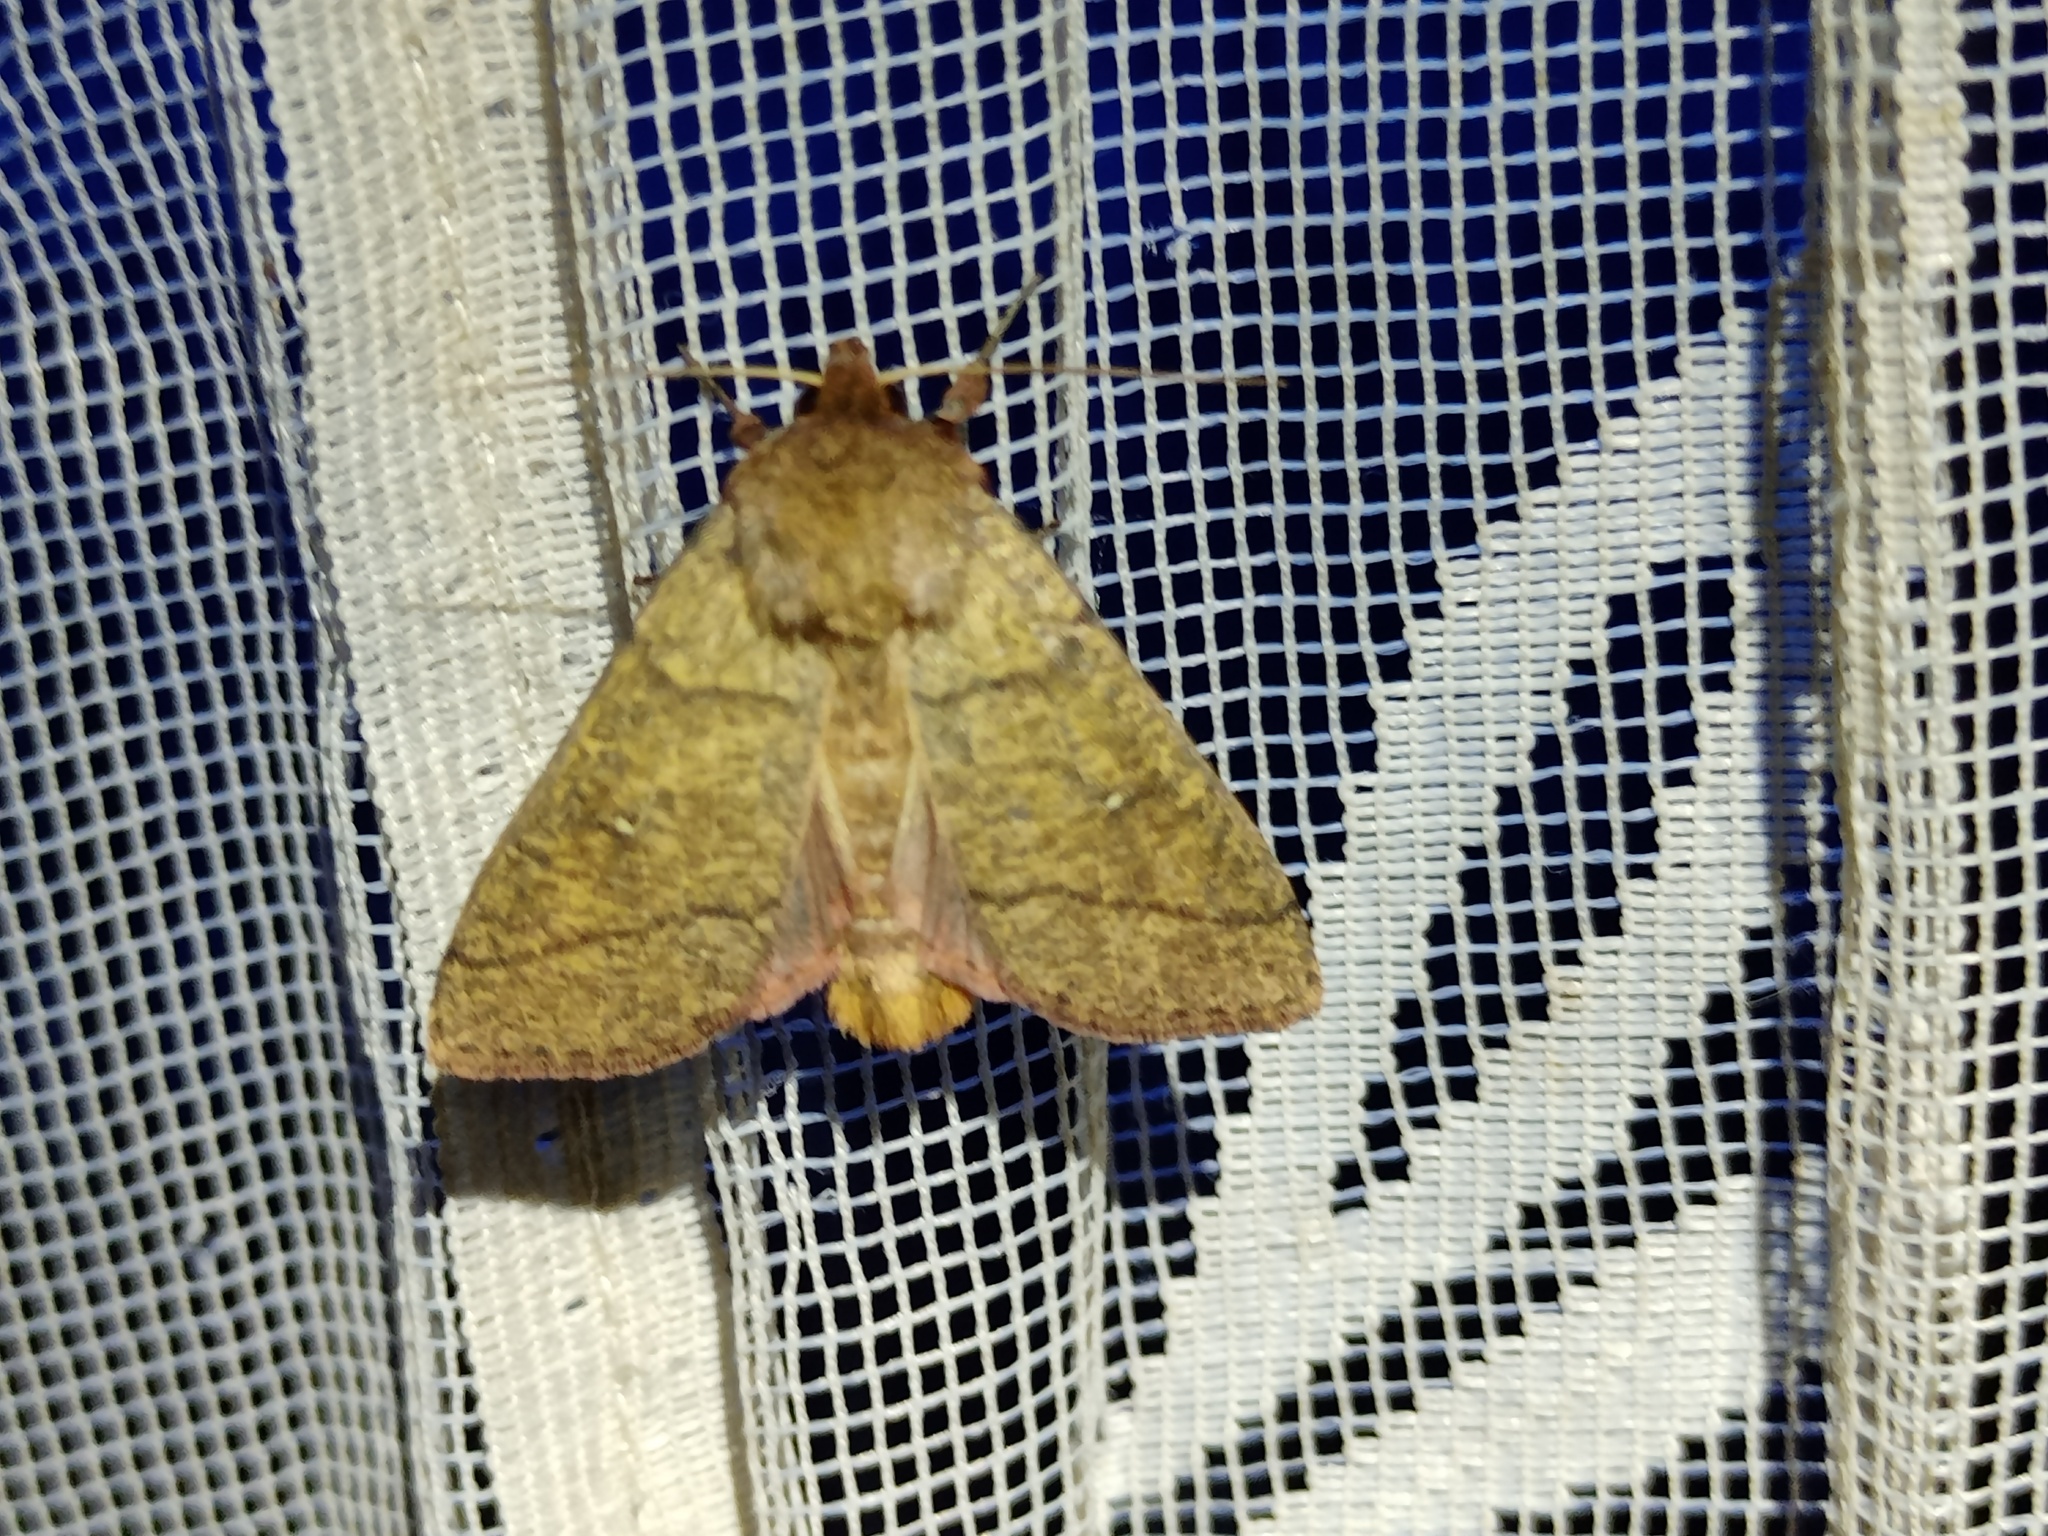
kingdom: Animalia
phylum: Arthropoda
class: Insecta
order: Lepidoptera
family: Noctuidae
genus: Mythimna
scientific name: Mythimna turca
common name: Double line
